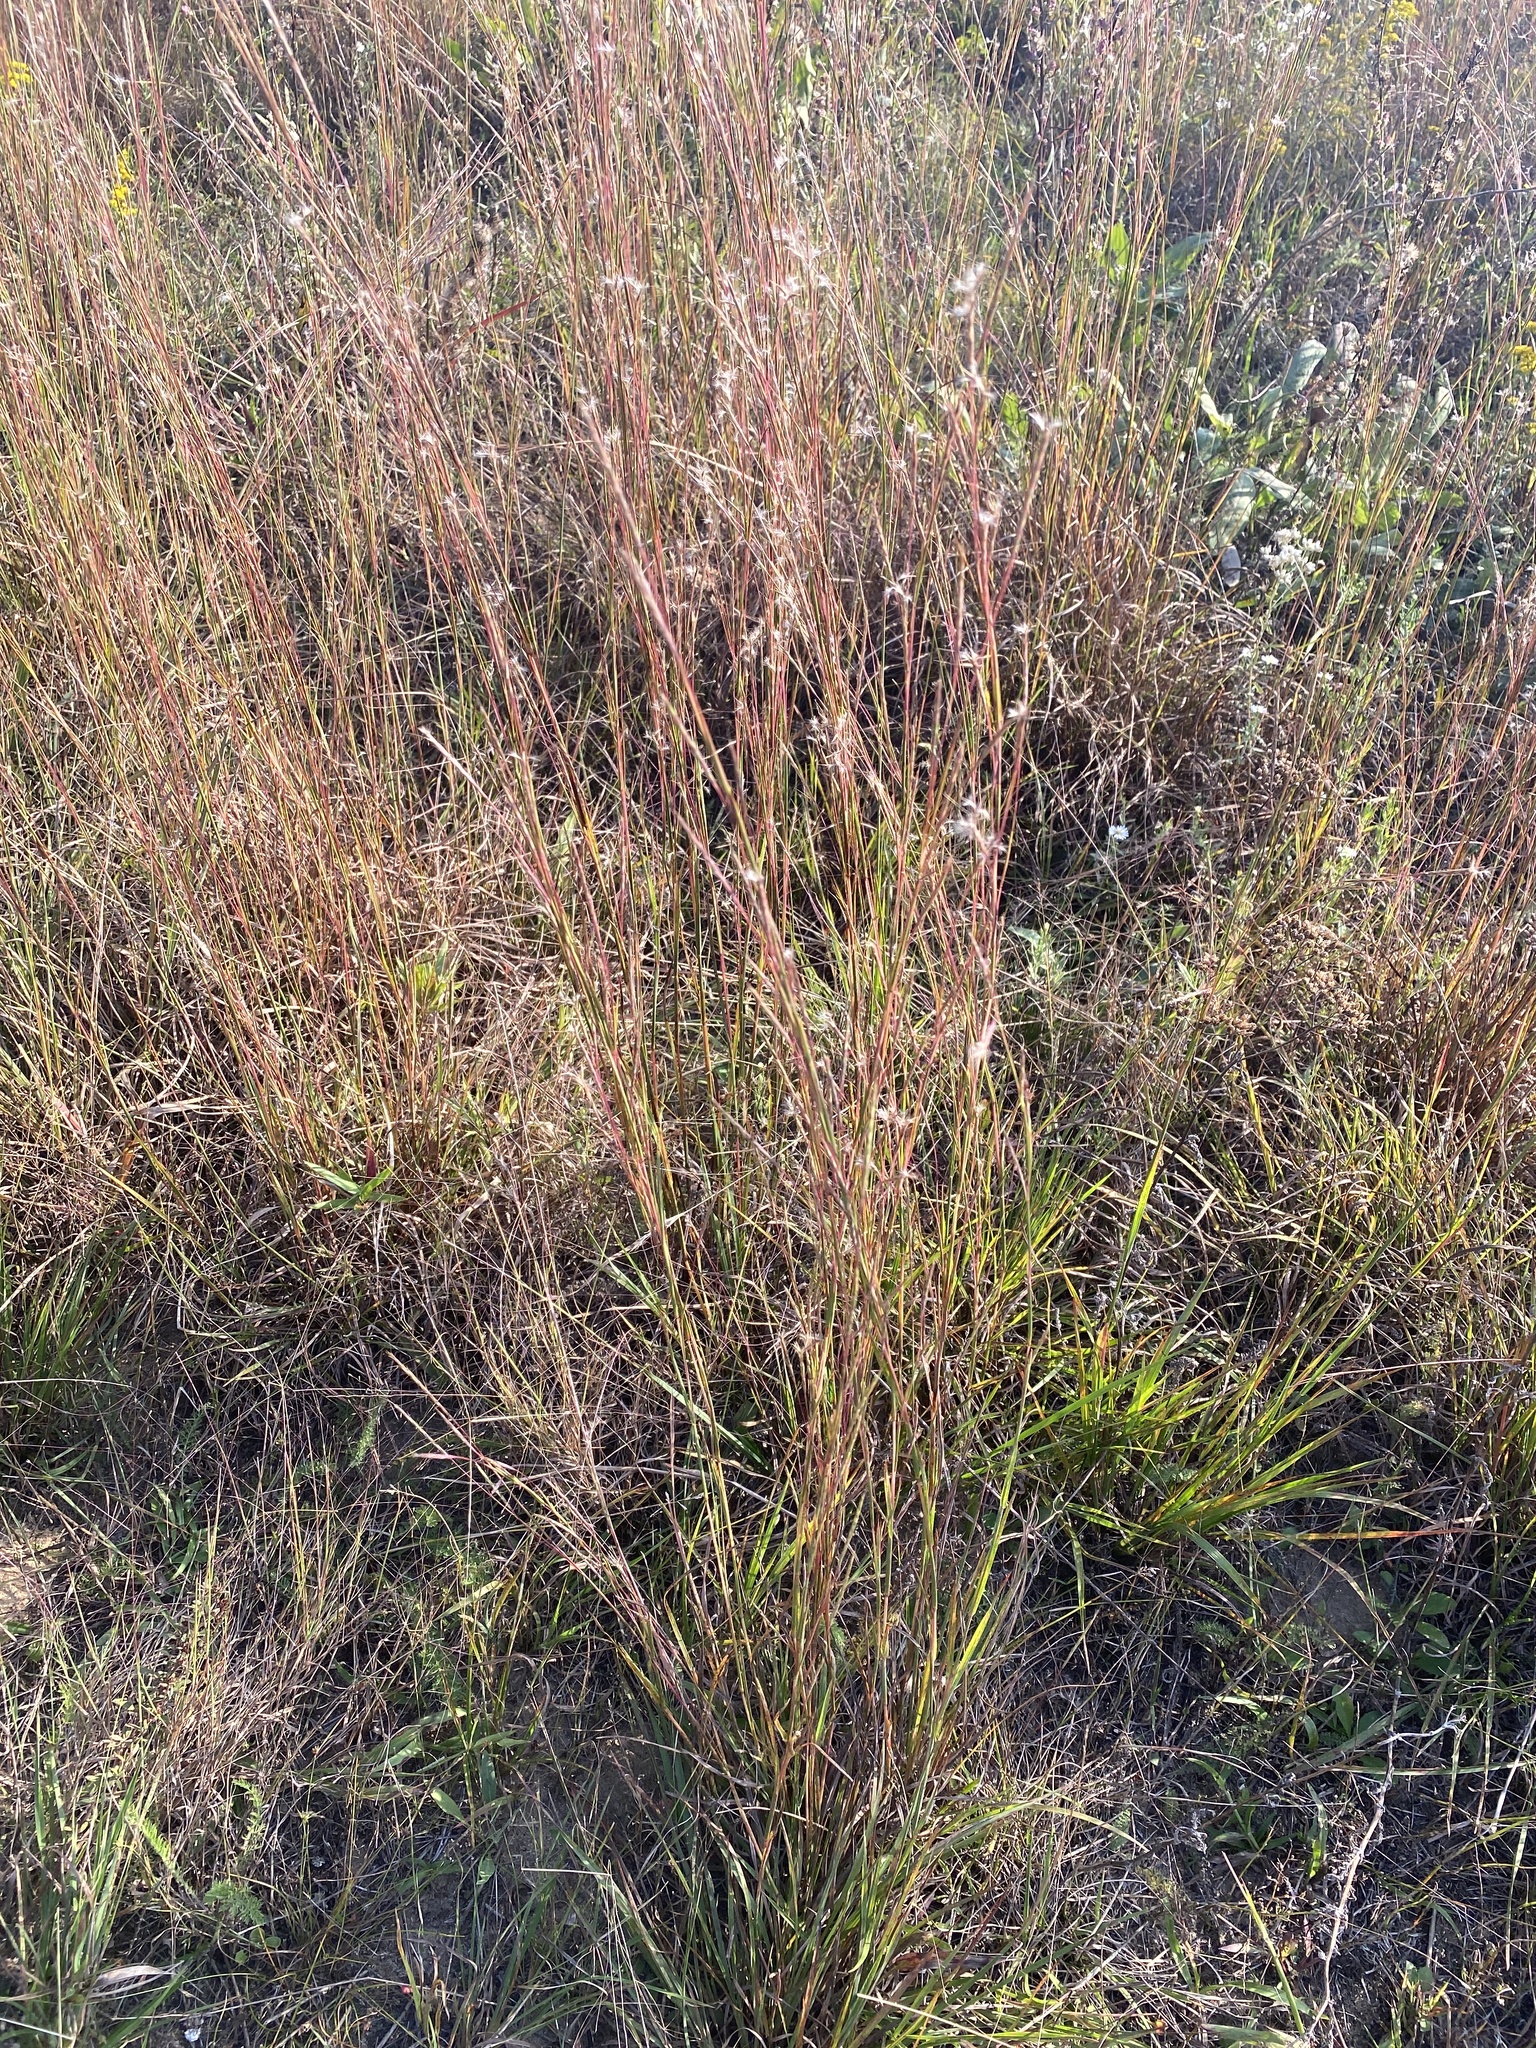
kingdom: Plantae
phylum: Tracheophyta
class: Liliopsida
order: Poales
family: Poaceae
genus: Schizachyrium
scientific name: Schizachyrium scoparium
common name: Little bluestem
